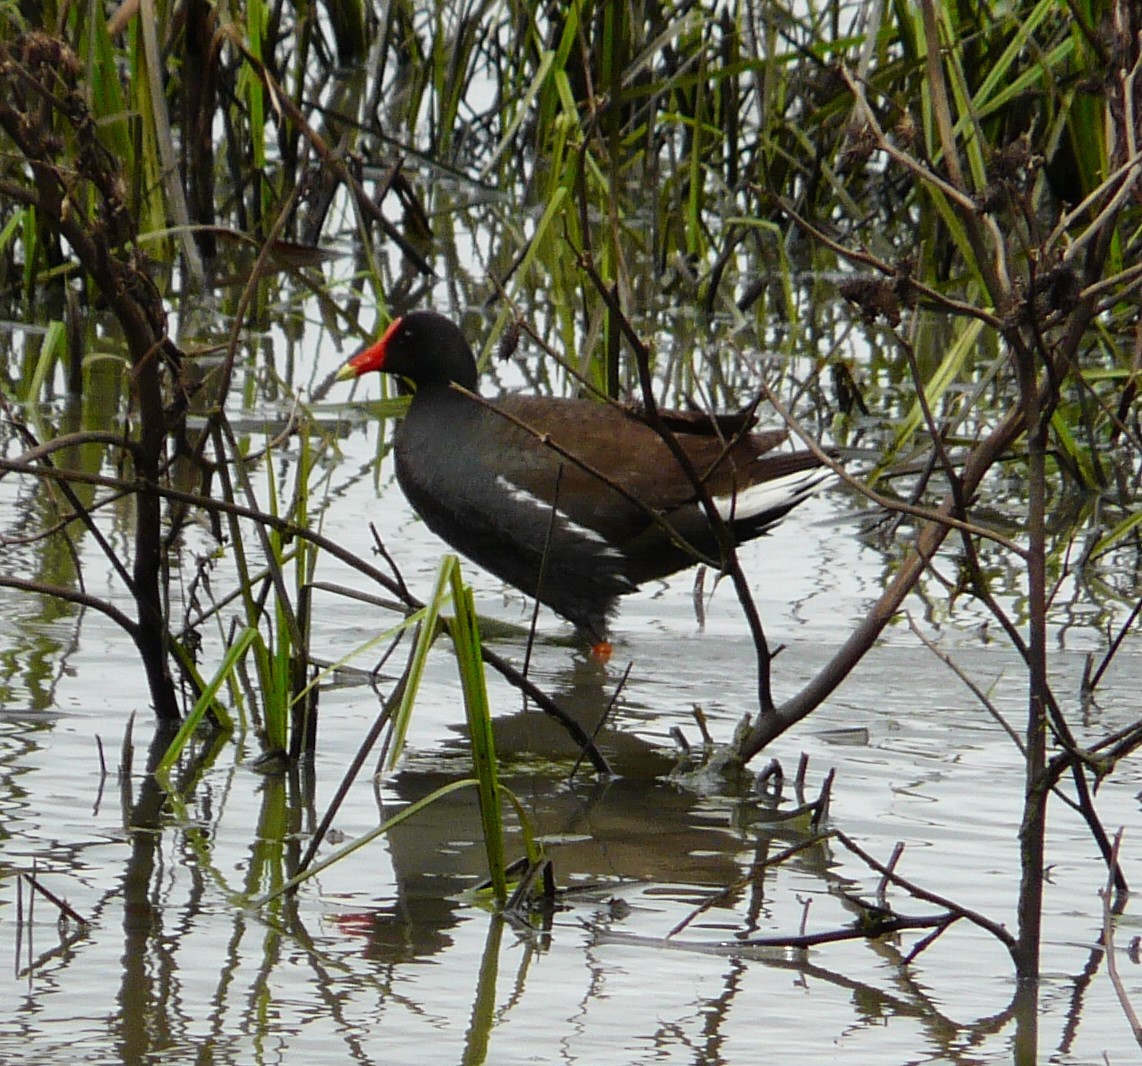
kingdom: Animalia
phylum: Chordata
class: Aves
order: Gruiformes
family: Rallidae
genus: Gallinula
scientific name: Gallinula chloropus
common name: Common moorhen
